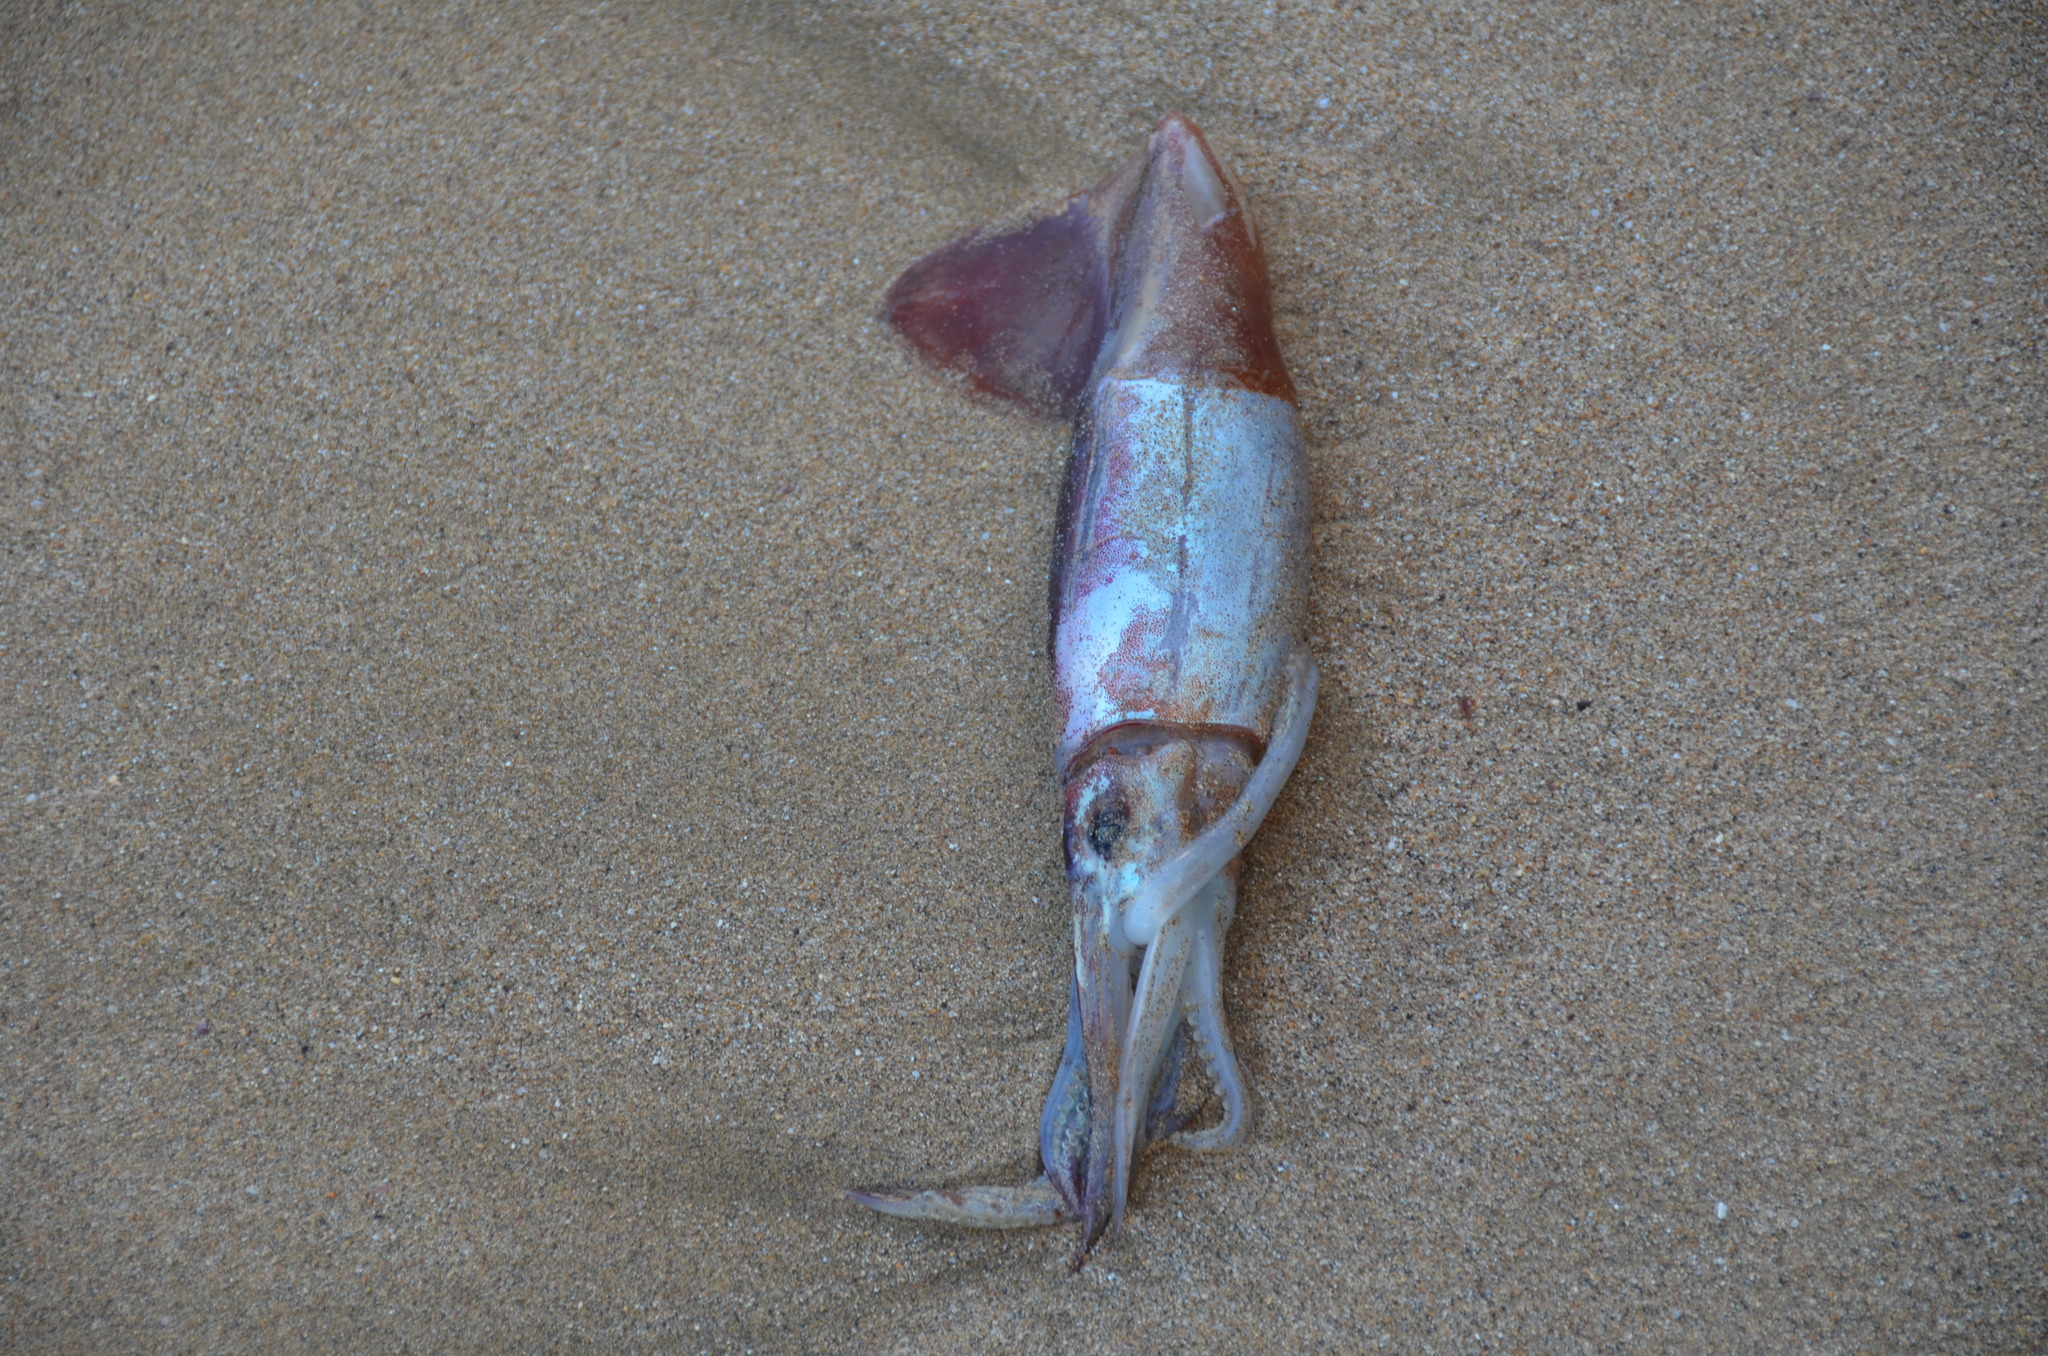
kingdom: Animalia
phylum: Mollusca
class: Cephalopoda
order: Myopsida
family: Loliginidae
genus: Sepioteuthis
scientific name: Sepioteuthis lessoniana
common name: Bigfin reef squid
